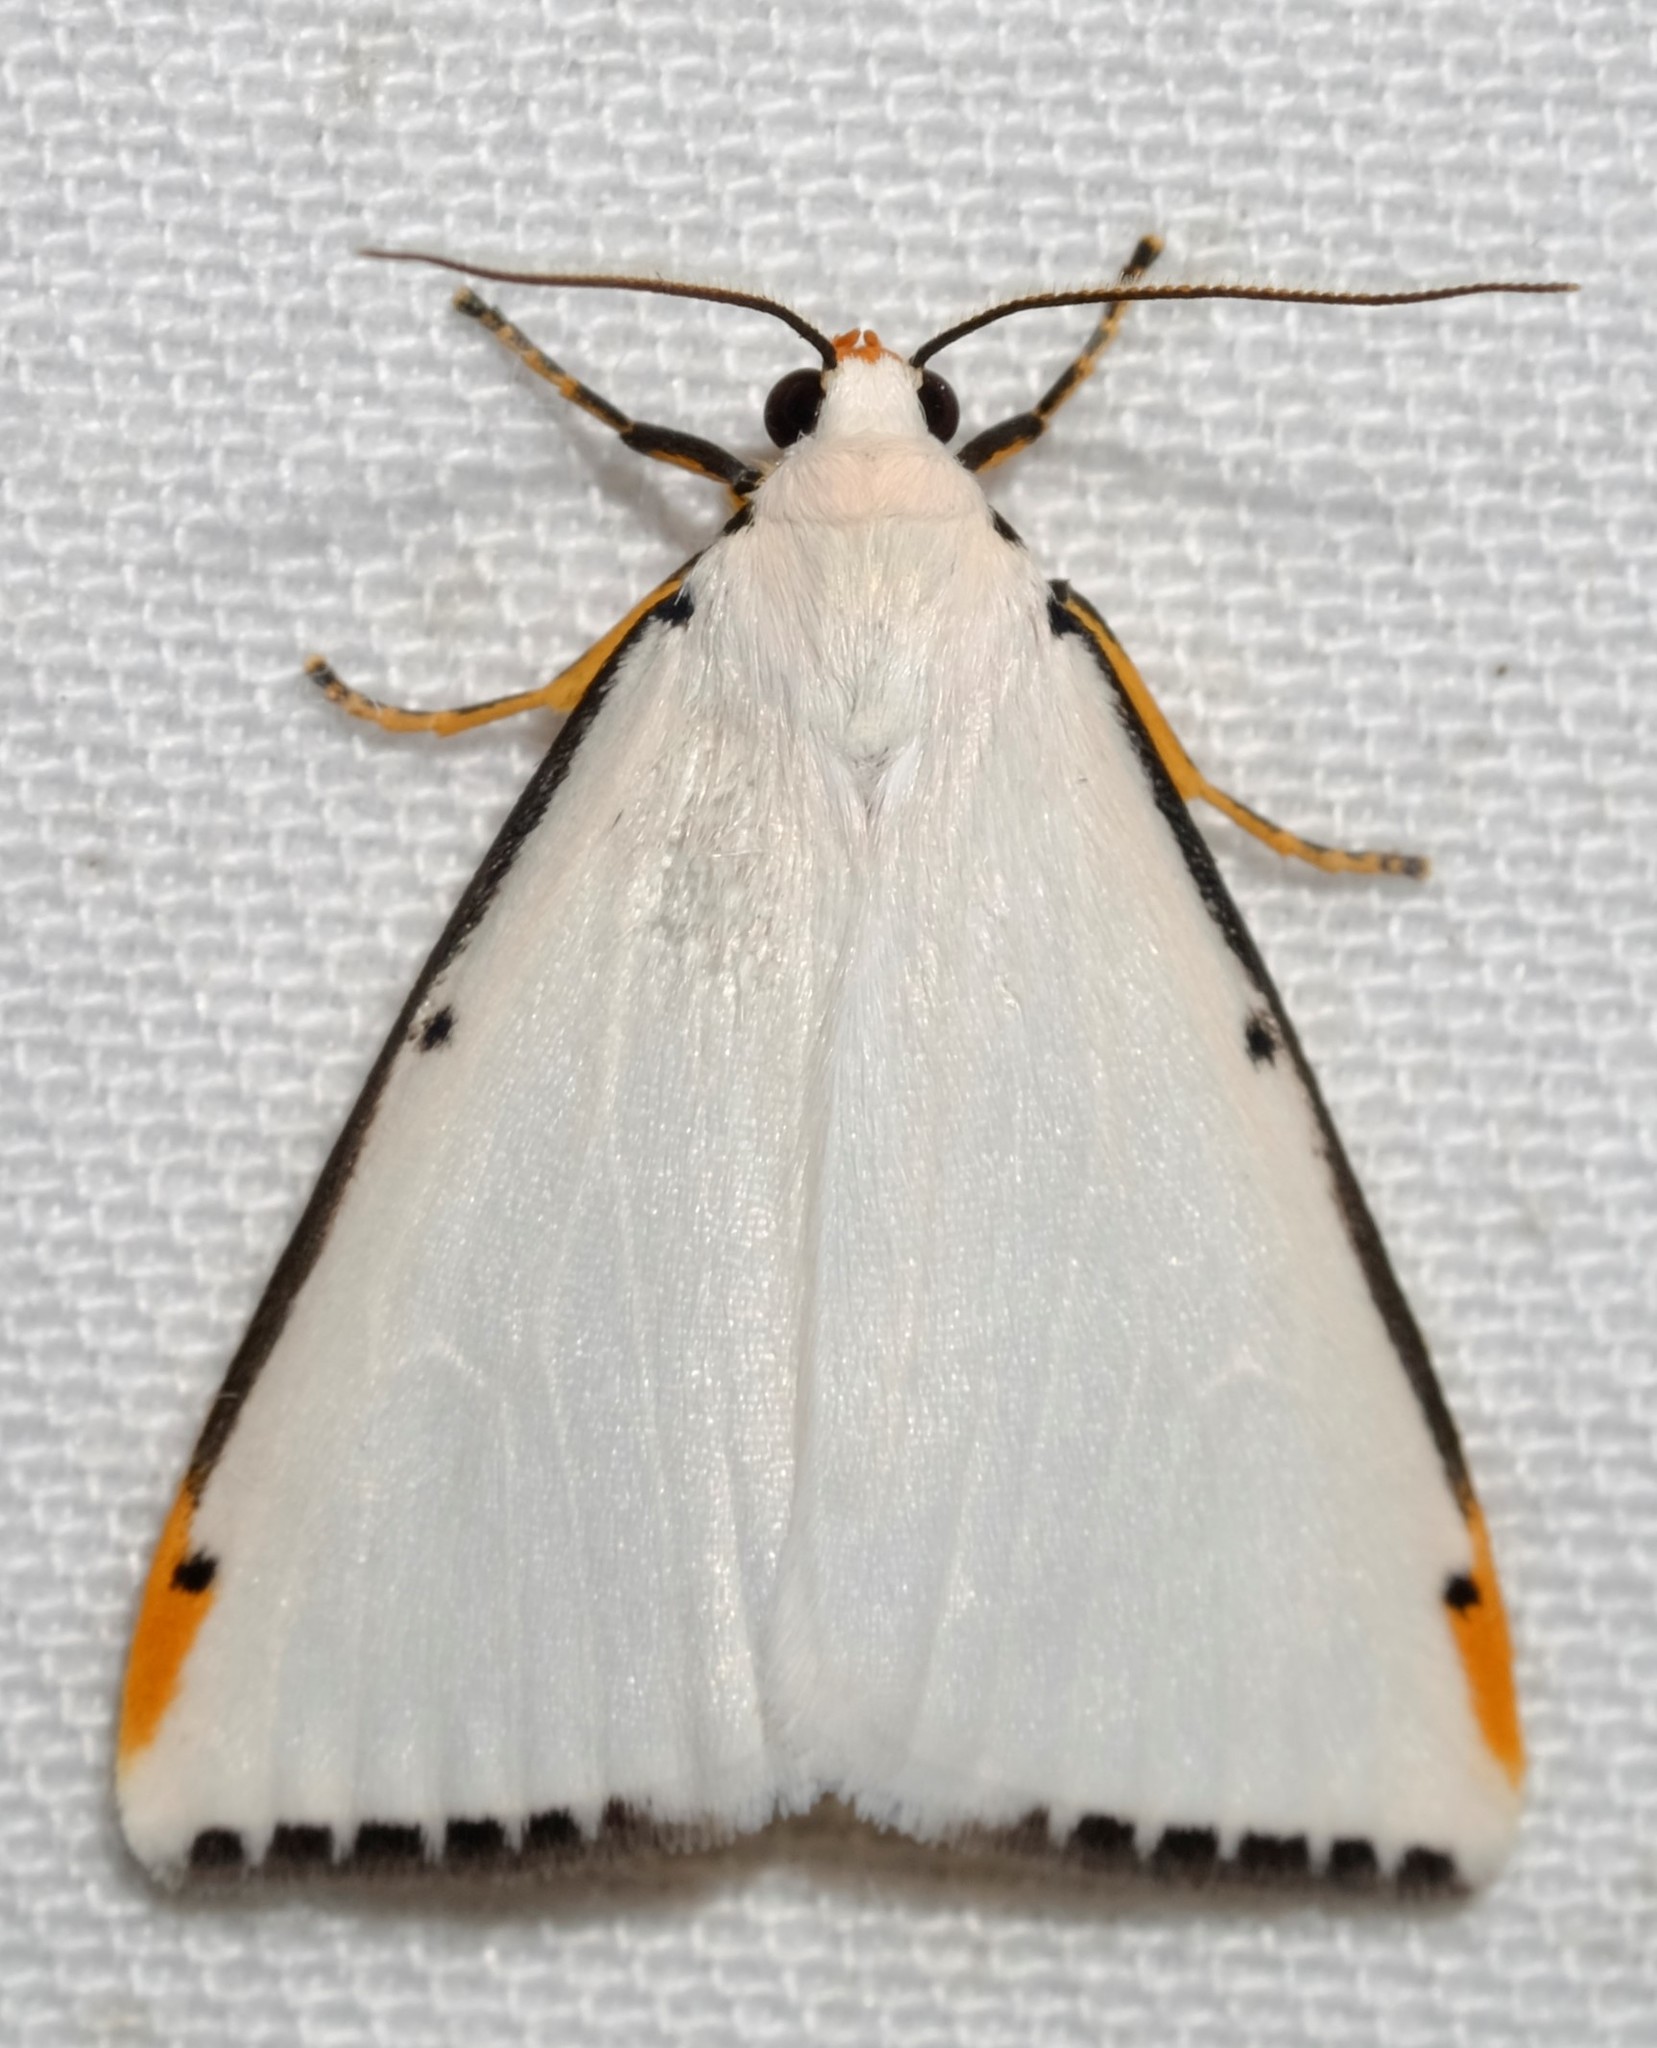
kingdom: Animalia
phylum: Arthropoda
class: Insecta
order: Lepidoptera
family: Erebidae
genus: Termessa
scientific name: Termessa nivosa
